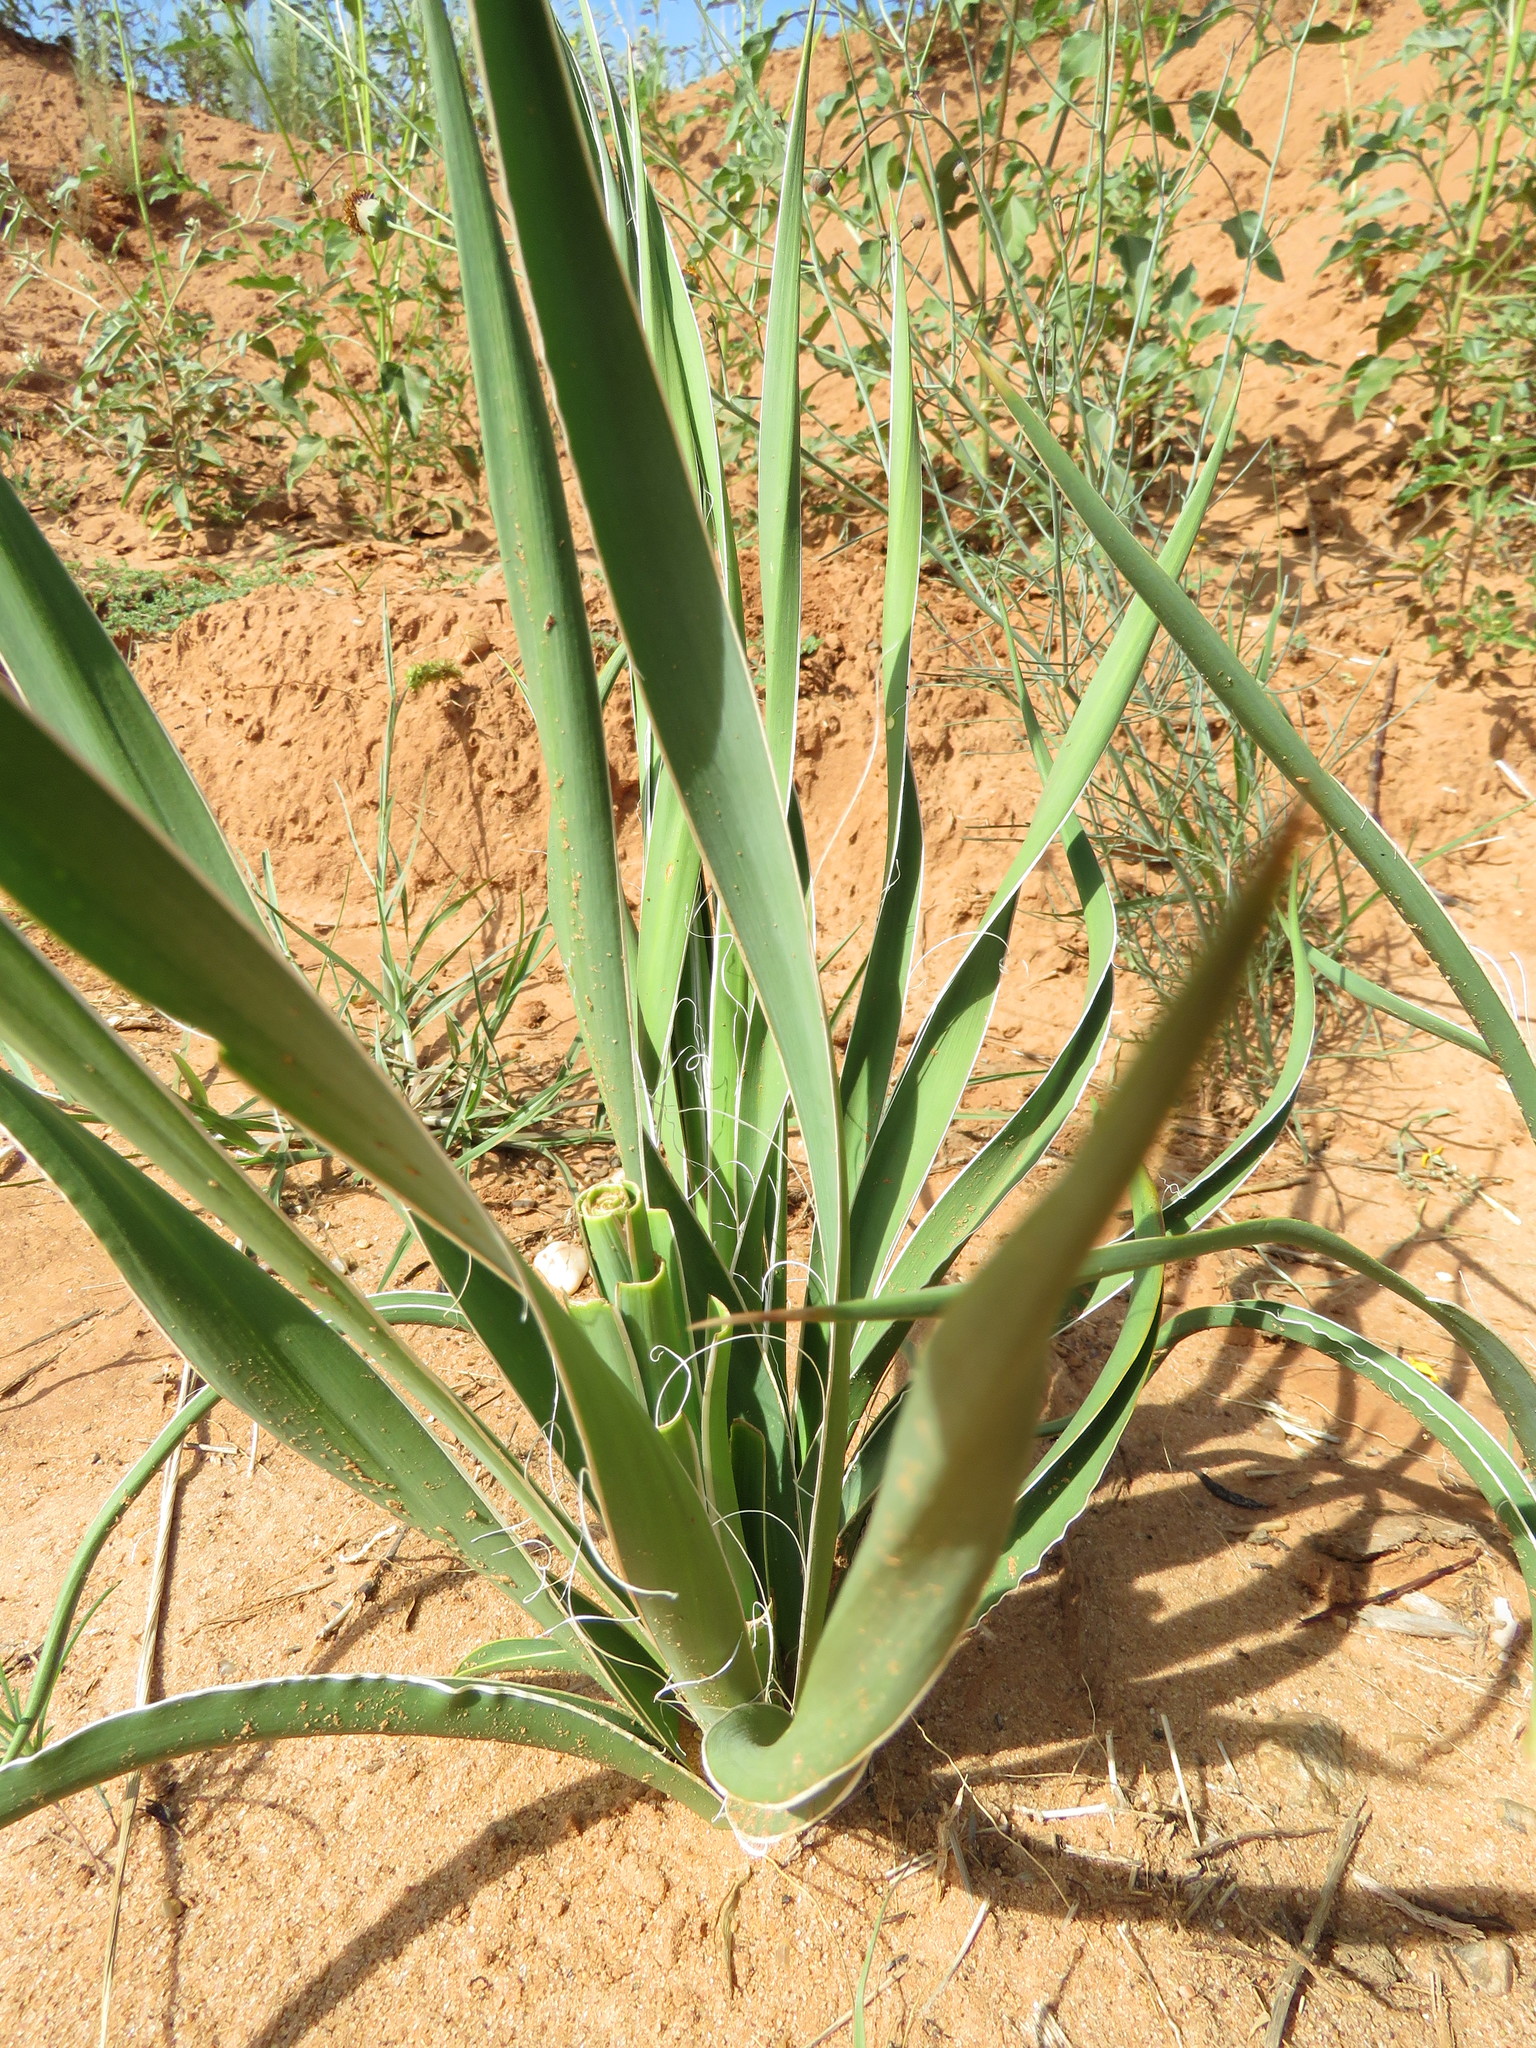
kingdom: Plantae
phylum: Tracheophyta
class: Liliopsida
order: Asparagales
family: Asparagaceae
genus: Yucca
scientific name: Yucca glauca
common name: Great plains yucca
